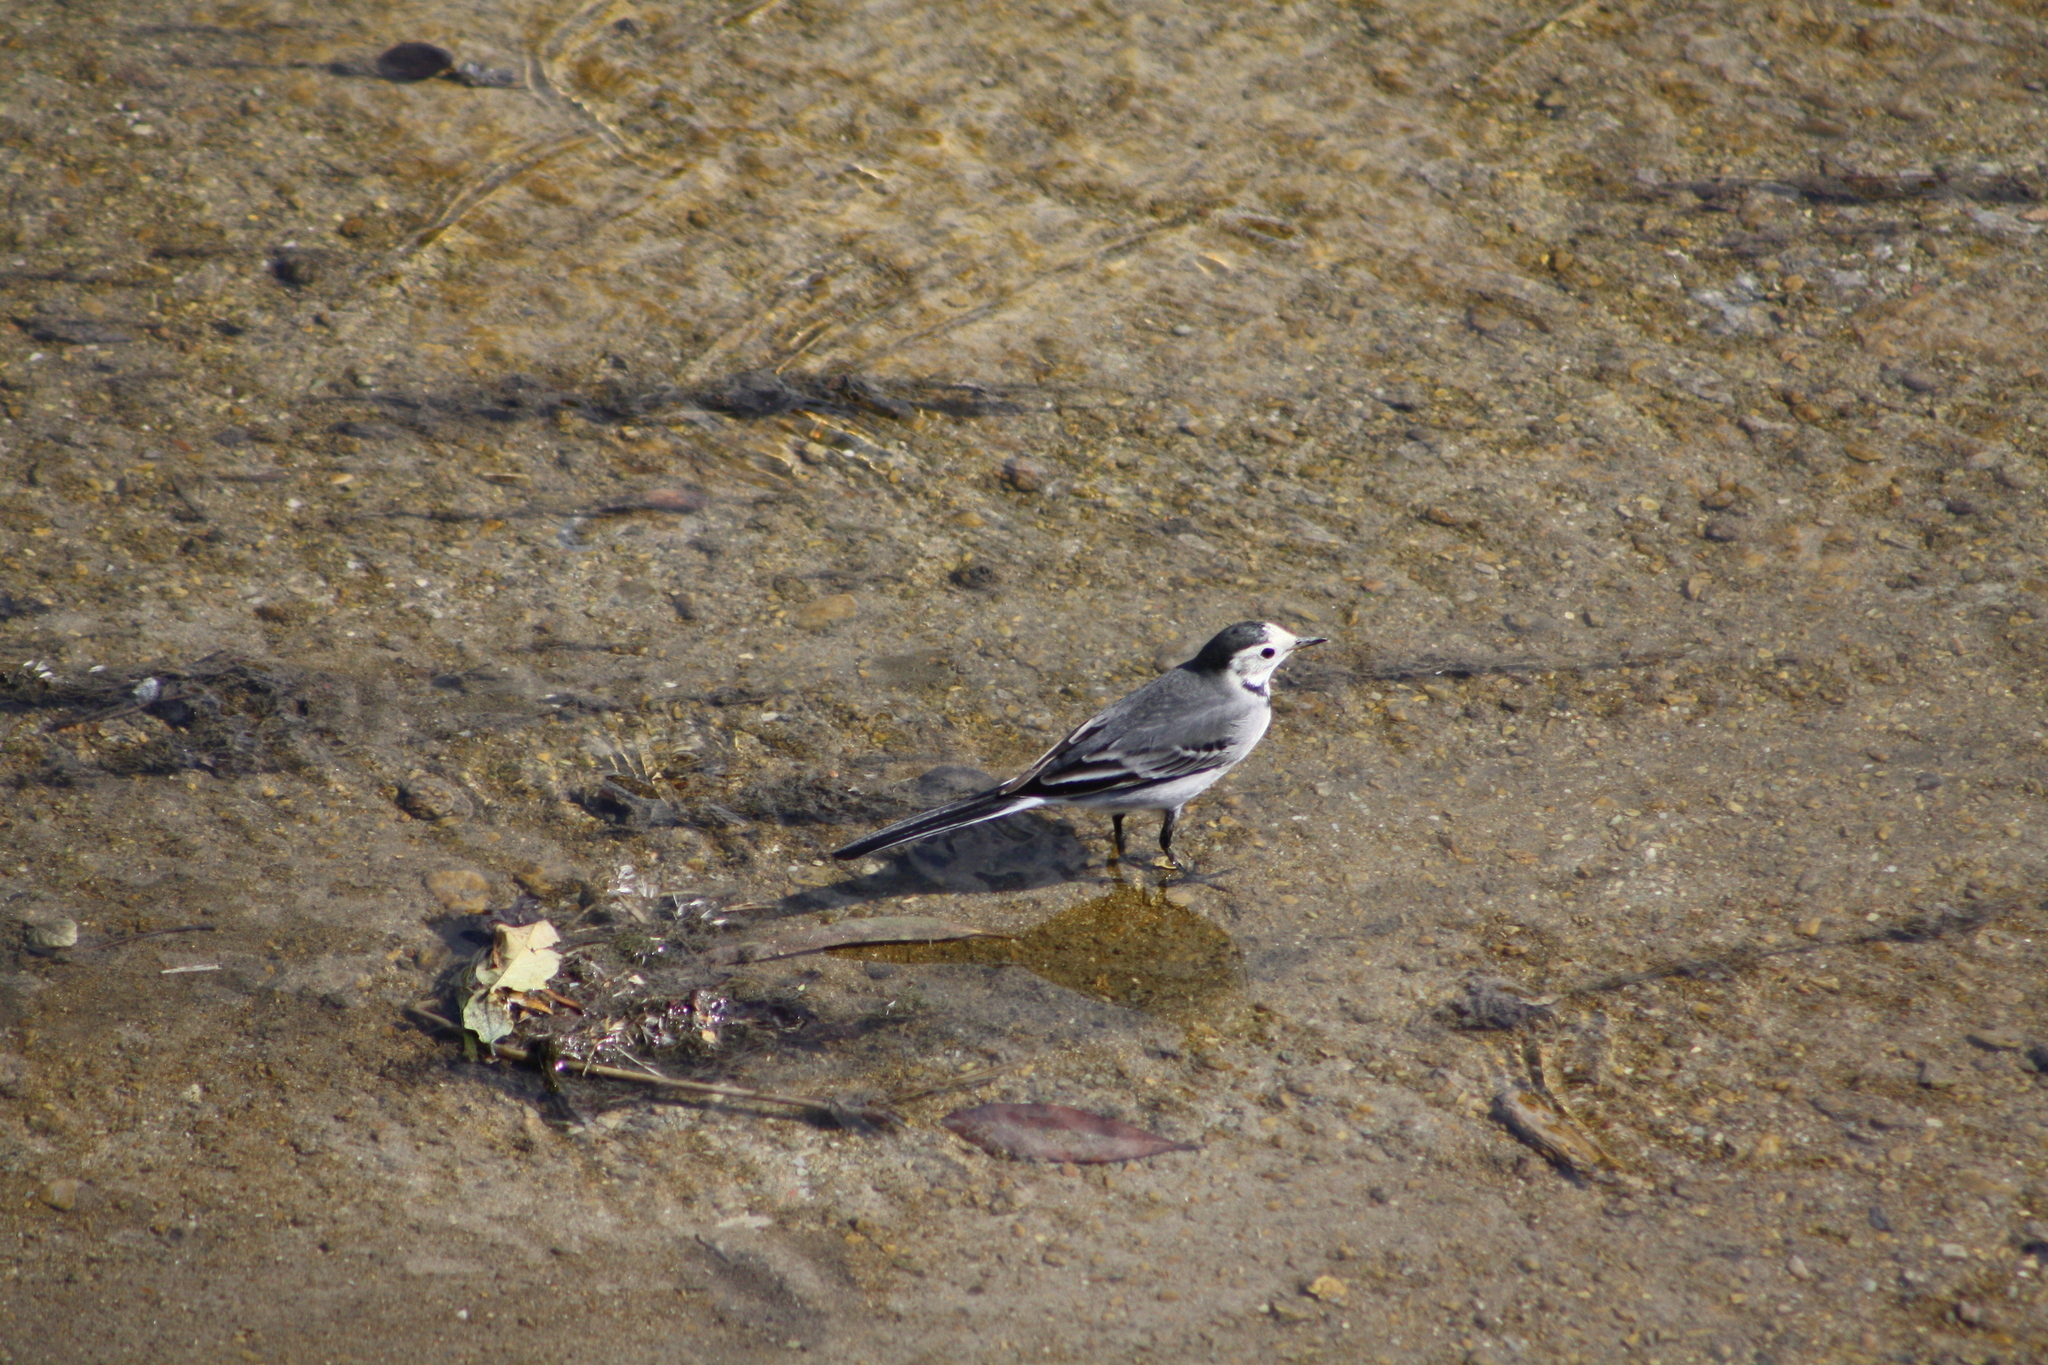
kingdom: Animalia
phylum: Chordata
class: Aves
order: Passeriformes
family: Motacillidae
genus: Motacilla
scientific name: Motacilla alba
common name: White wagtail
